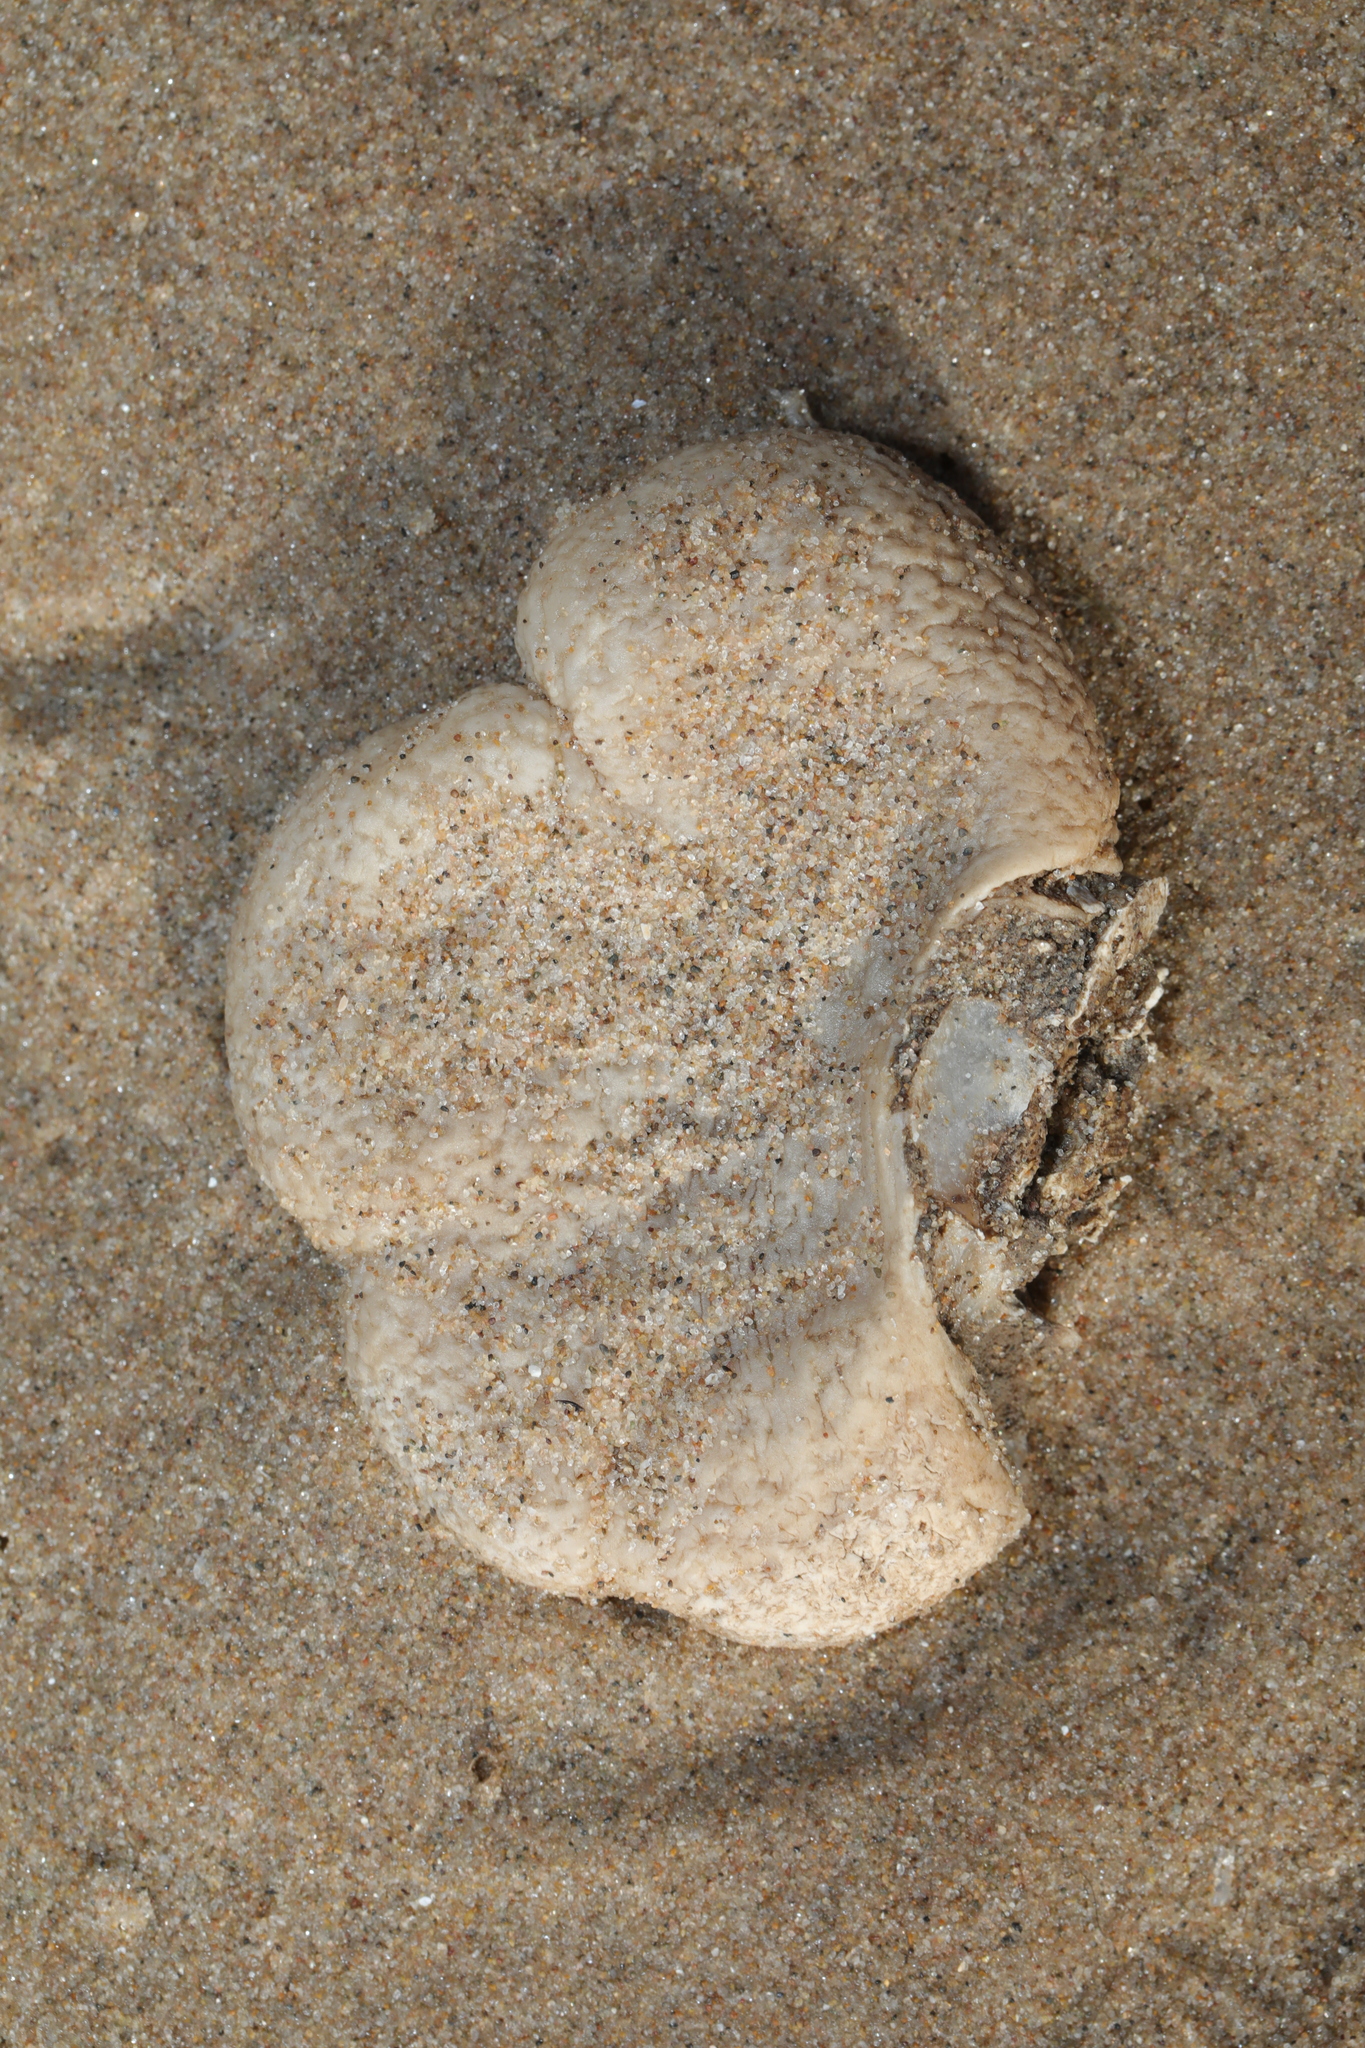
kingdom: Animalia
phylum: Cnidaria
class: Anthozoa
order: Malacalcyonacea
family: Alcyoniidae
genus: Alcyonium
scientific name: Alcyonium digitatum
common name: Dead man's fingers
